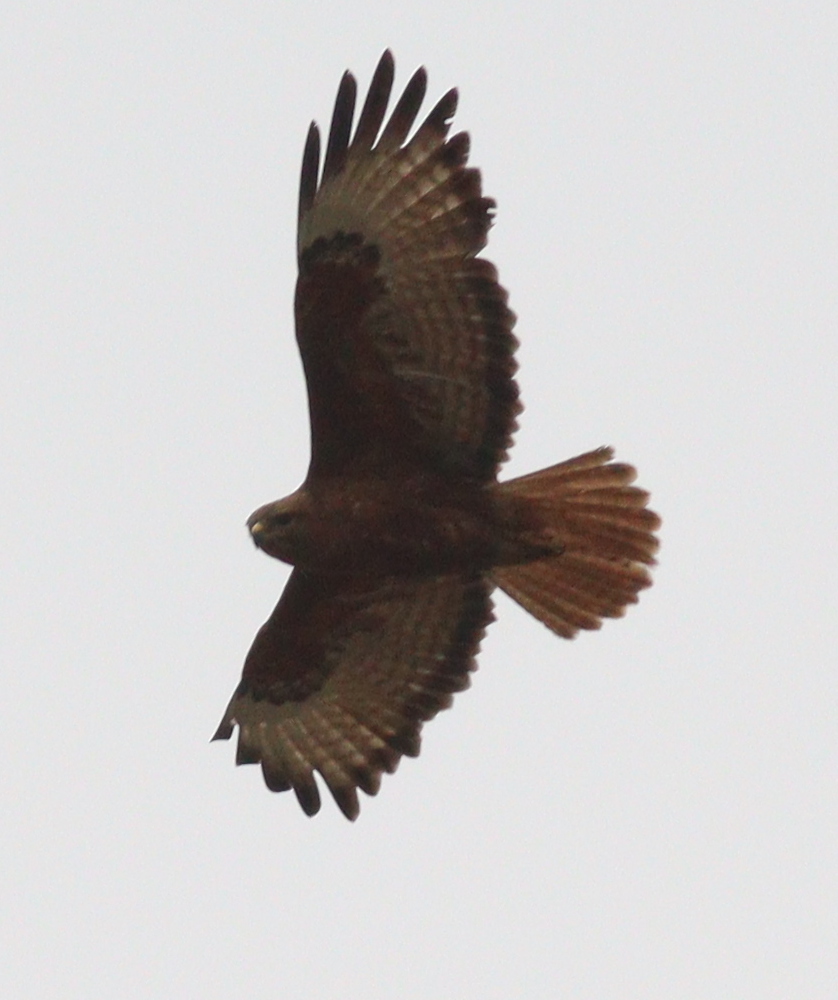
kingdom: Animalia
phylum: Chordata
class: Aves
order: Accipitriformes
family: Accipitridae
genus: Buteo
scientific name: Buteo rufinus
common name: Long-legged buzzard
